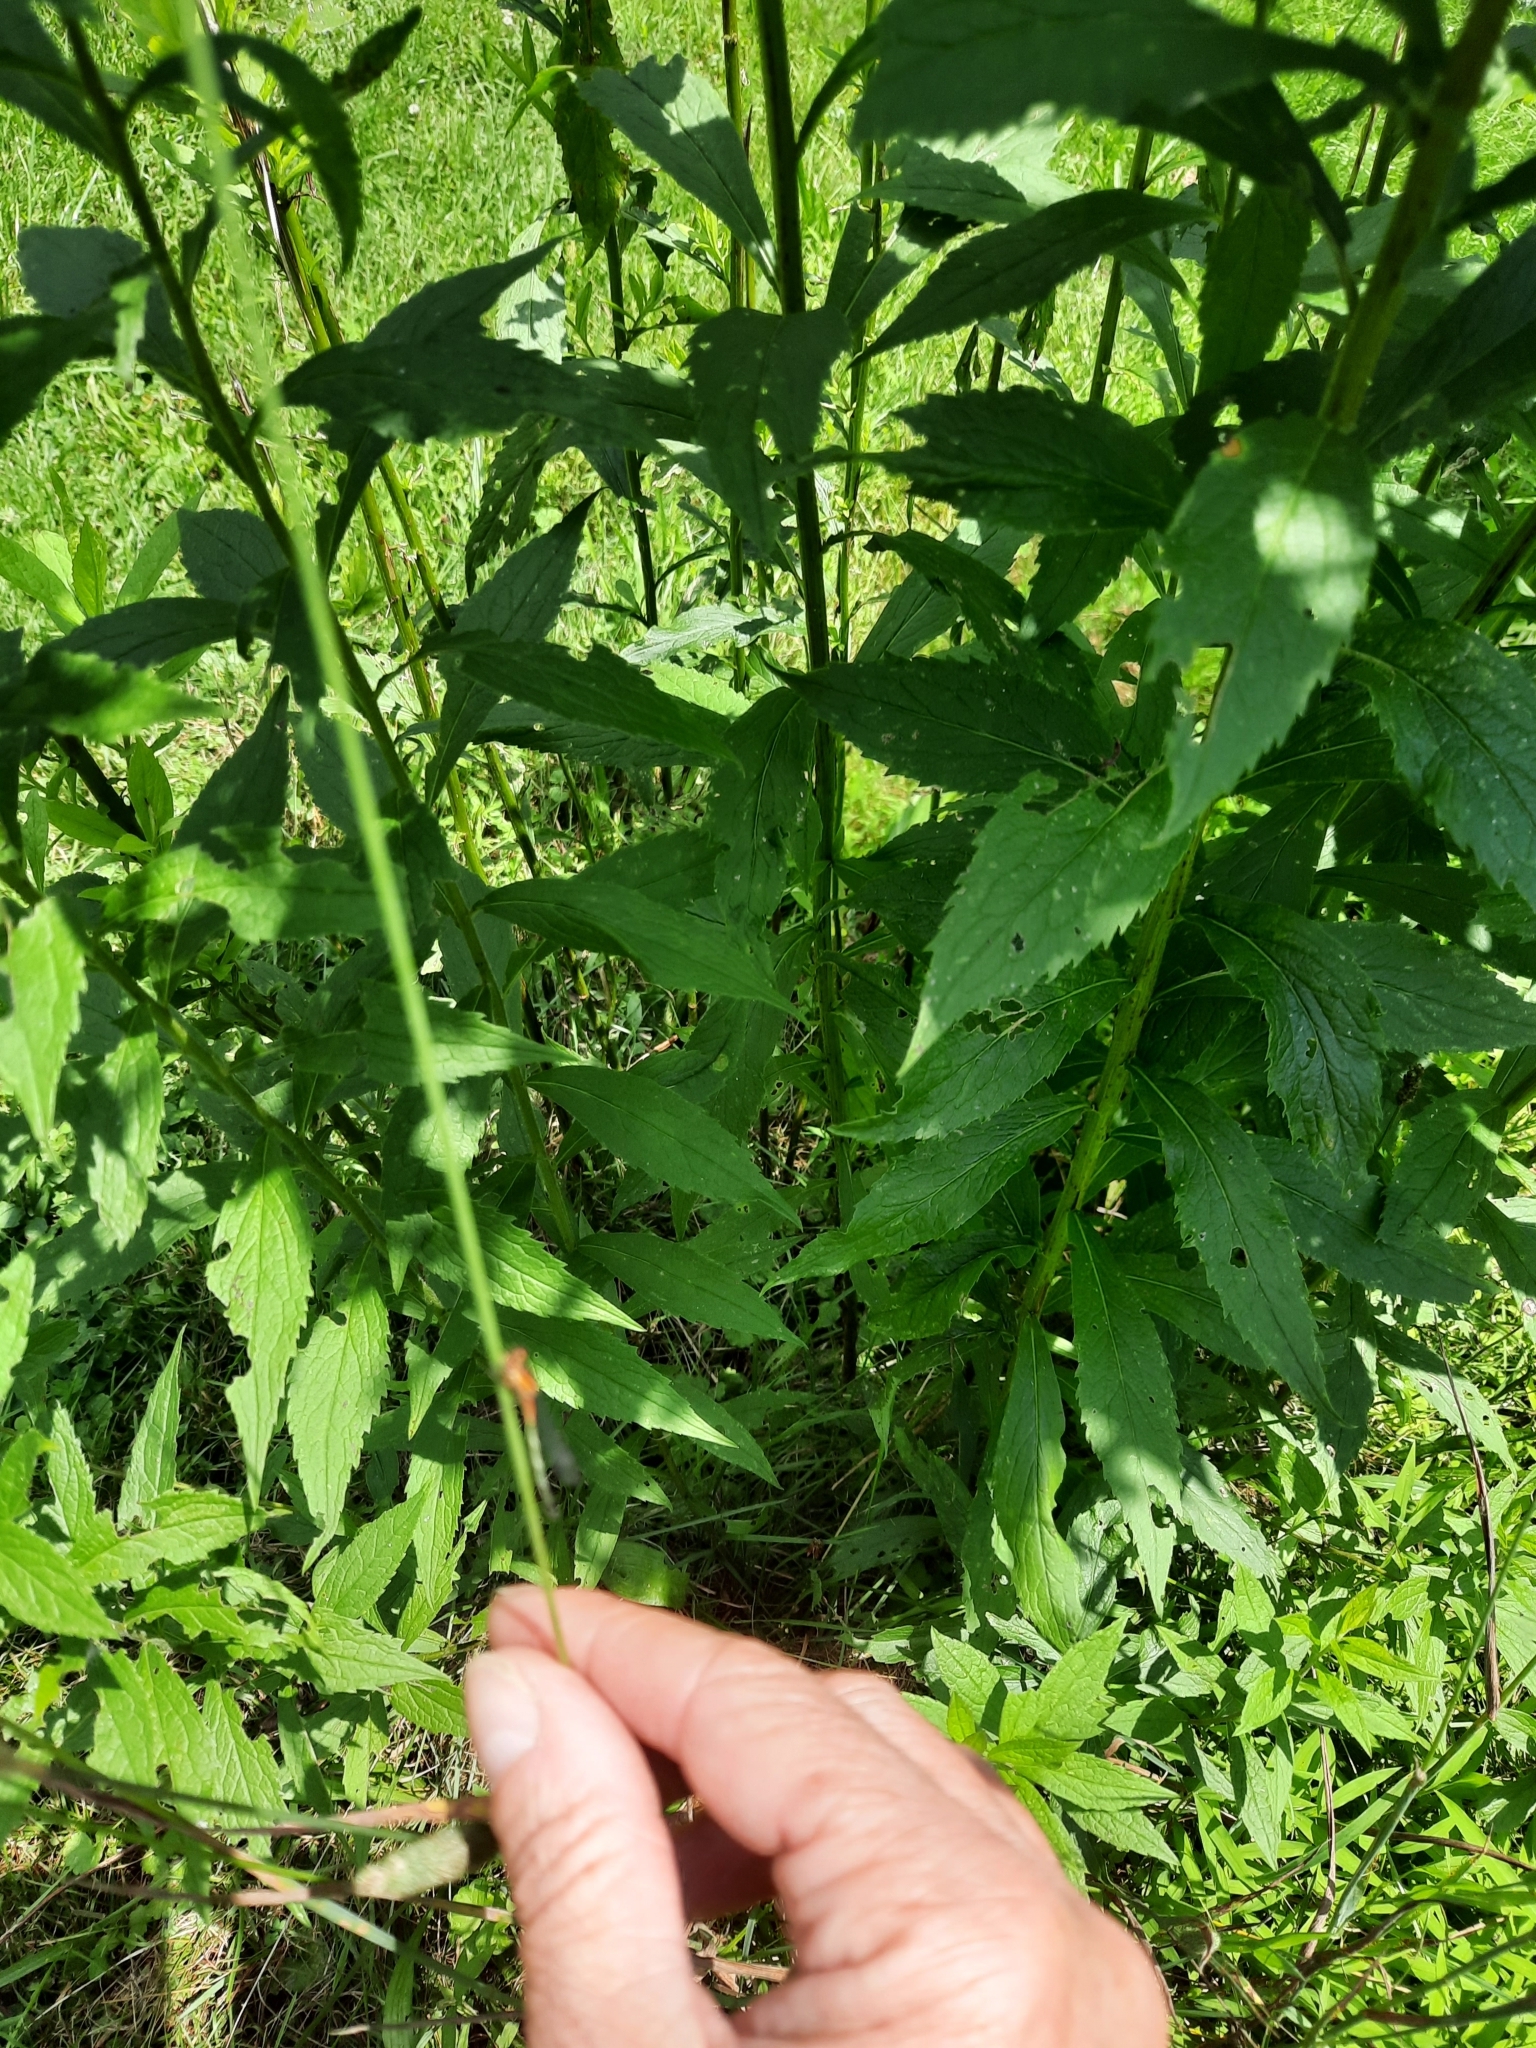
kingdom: Animalia
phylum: Arthropoda
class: Insecta
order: Odonata
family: Coenagrionidae
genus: Ischnura
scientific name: Ischnura verticalis
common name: Eastern forktail
